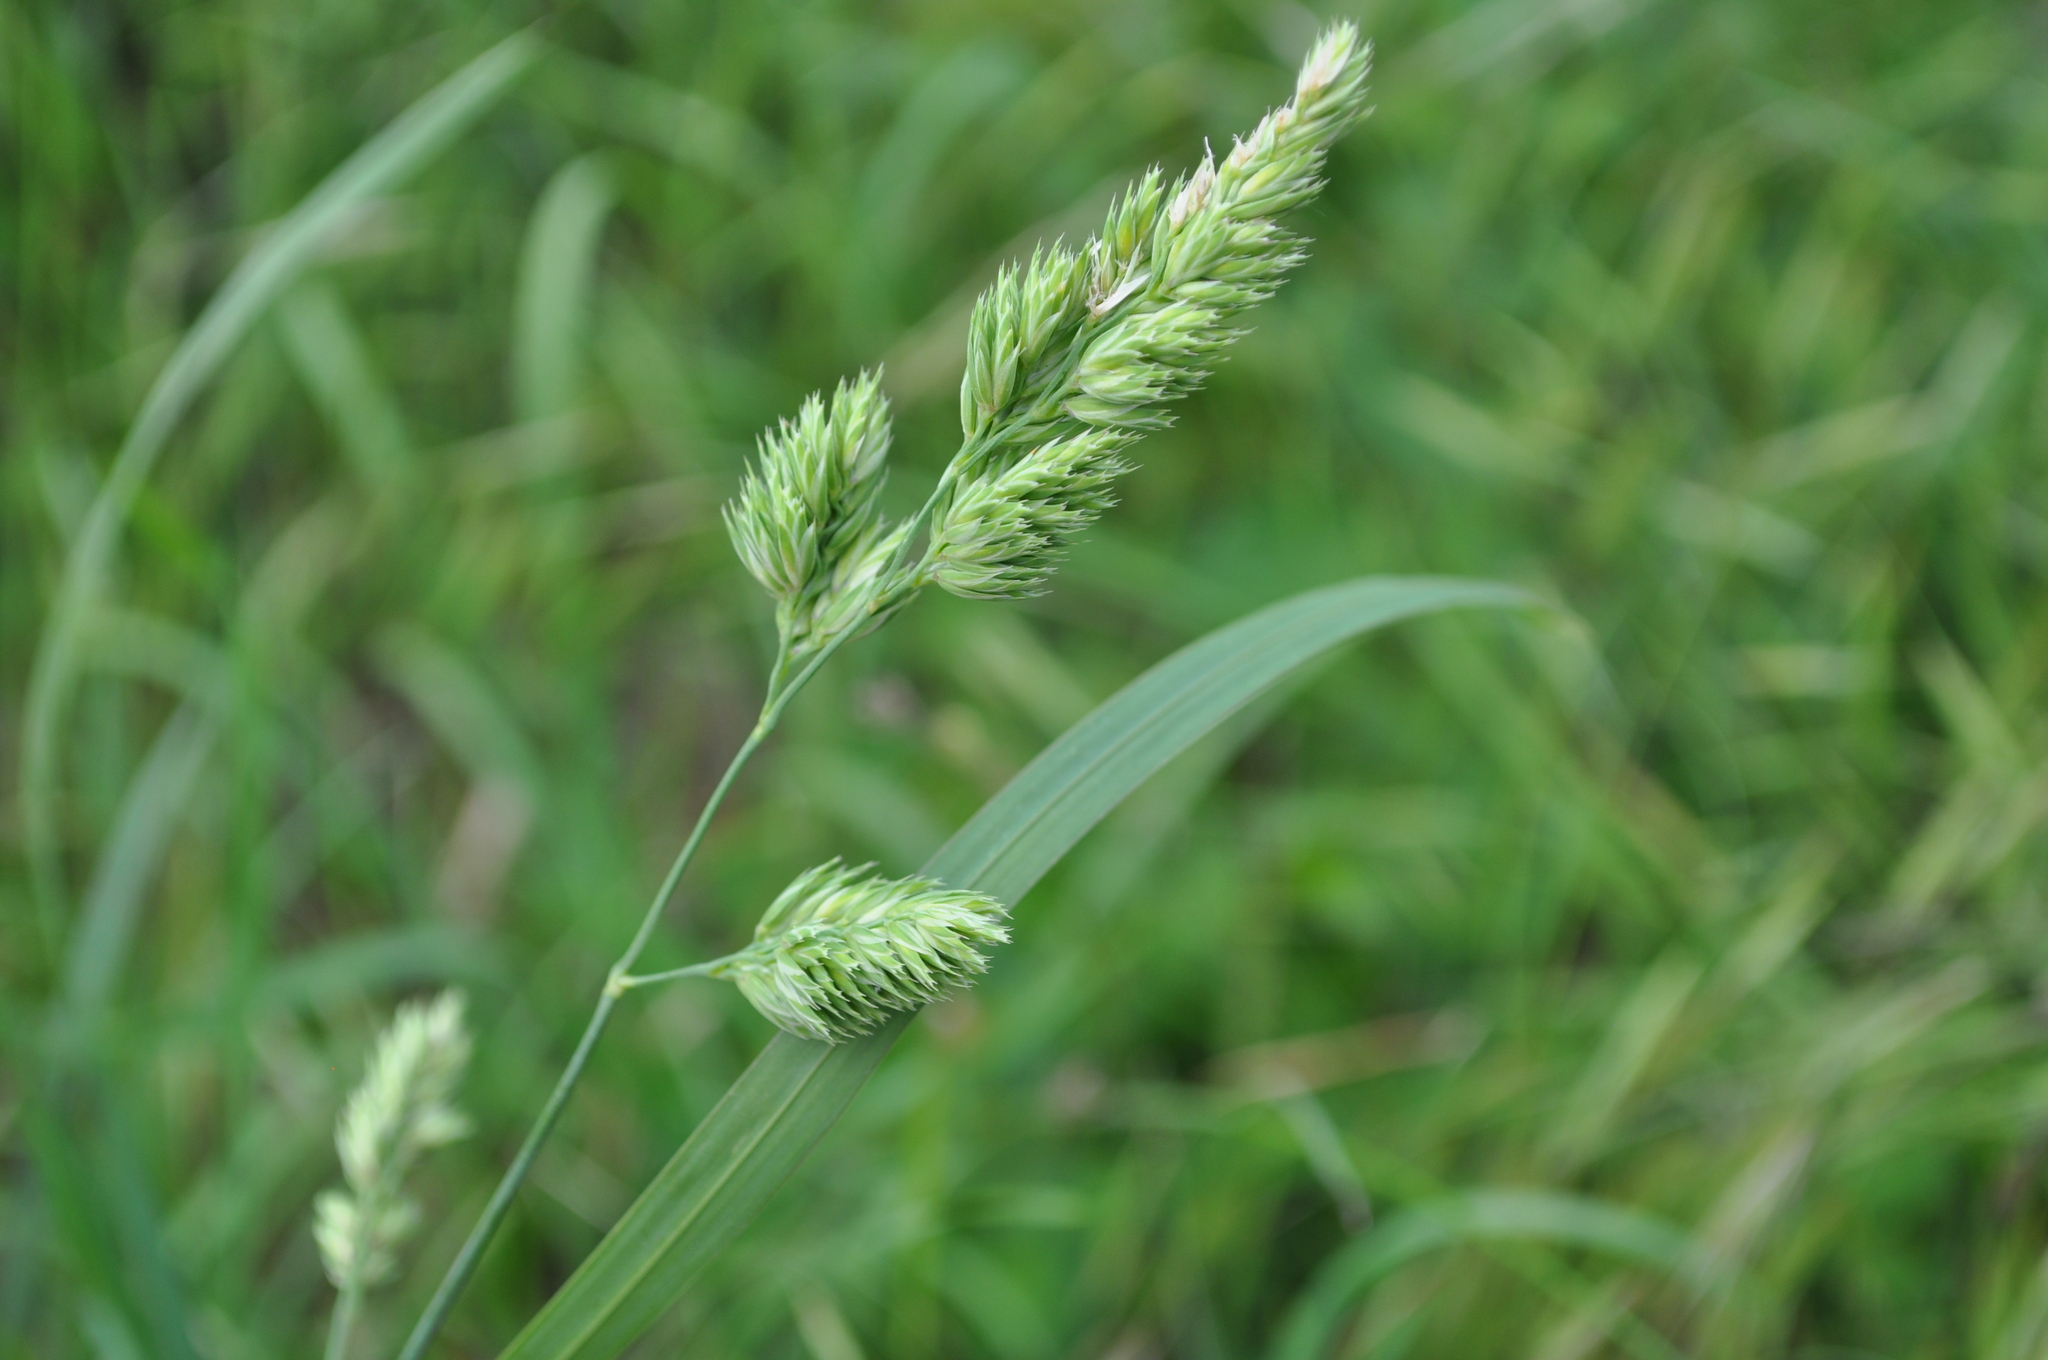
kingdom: Plantae
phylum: Tracheophyta
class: Liliopsida
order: Poales
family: Poaceae
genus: Dactylis
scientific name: Dactylis glomerata
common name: Orchardgrass
